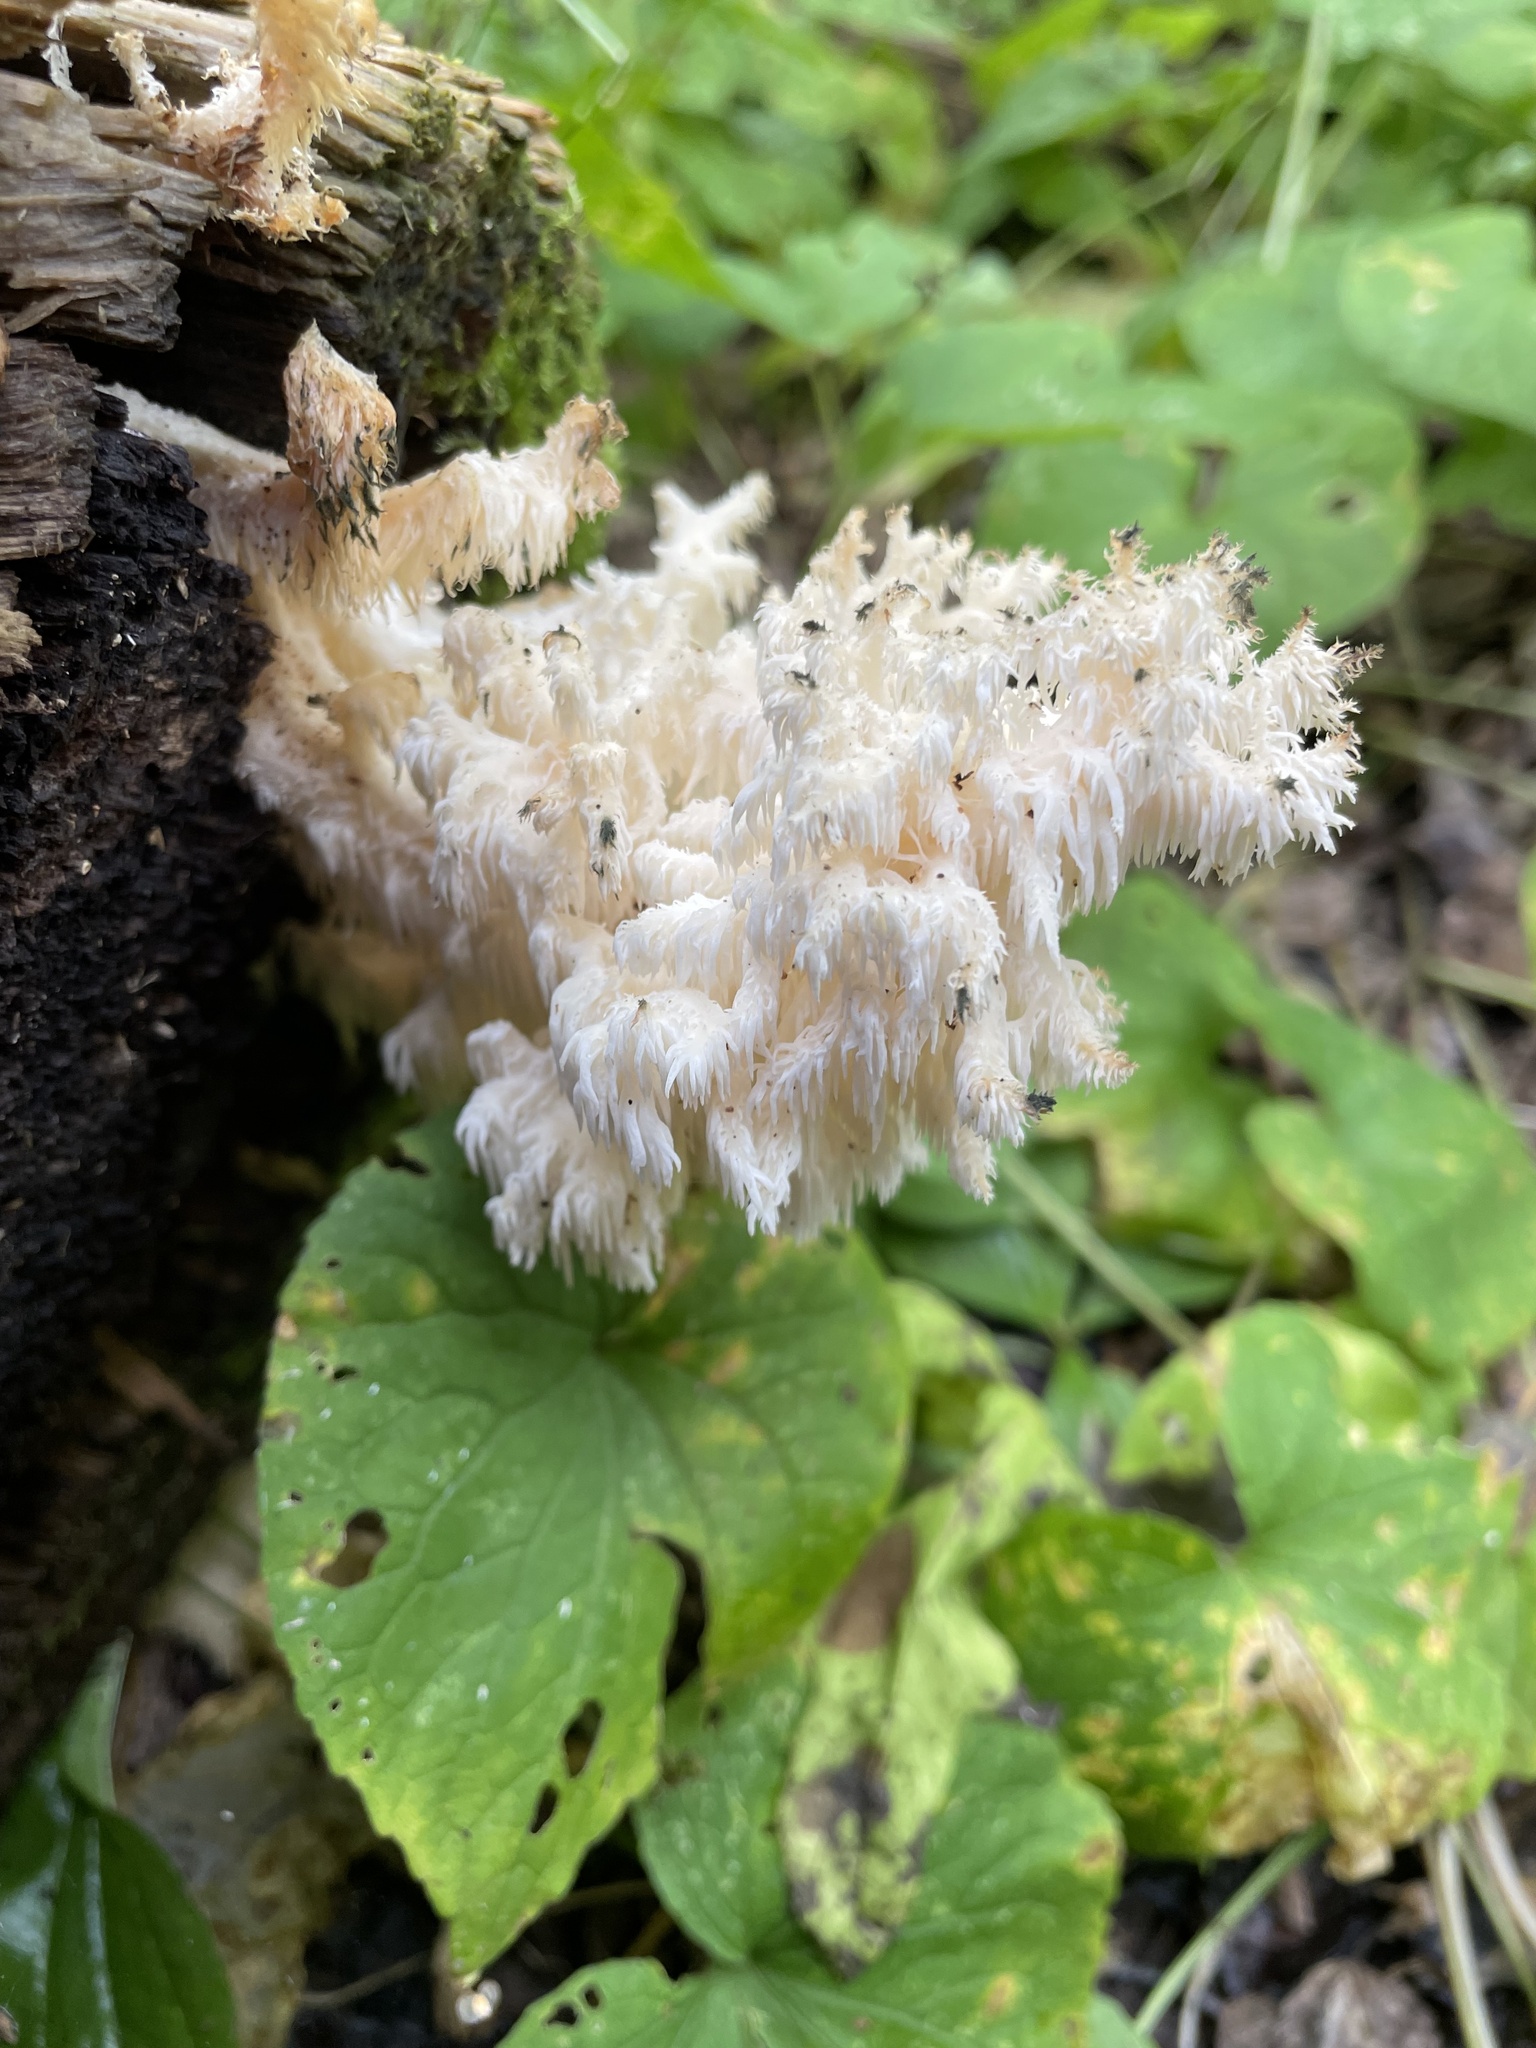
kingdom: Fungi
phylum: Basidiomycota
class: Agaricomycetes
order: Russulales
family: Hericiaceae
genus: Hericium
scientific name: Hericium coralloides
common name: Coral tooth
